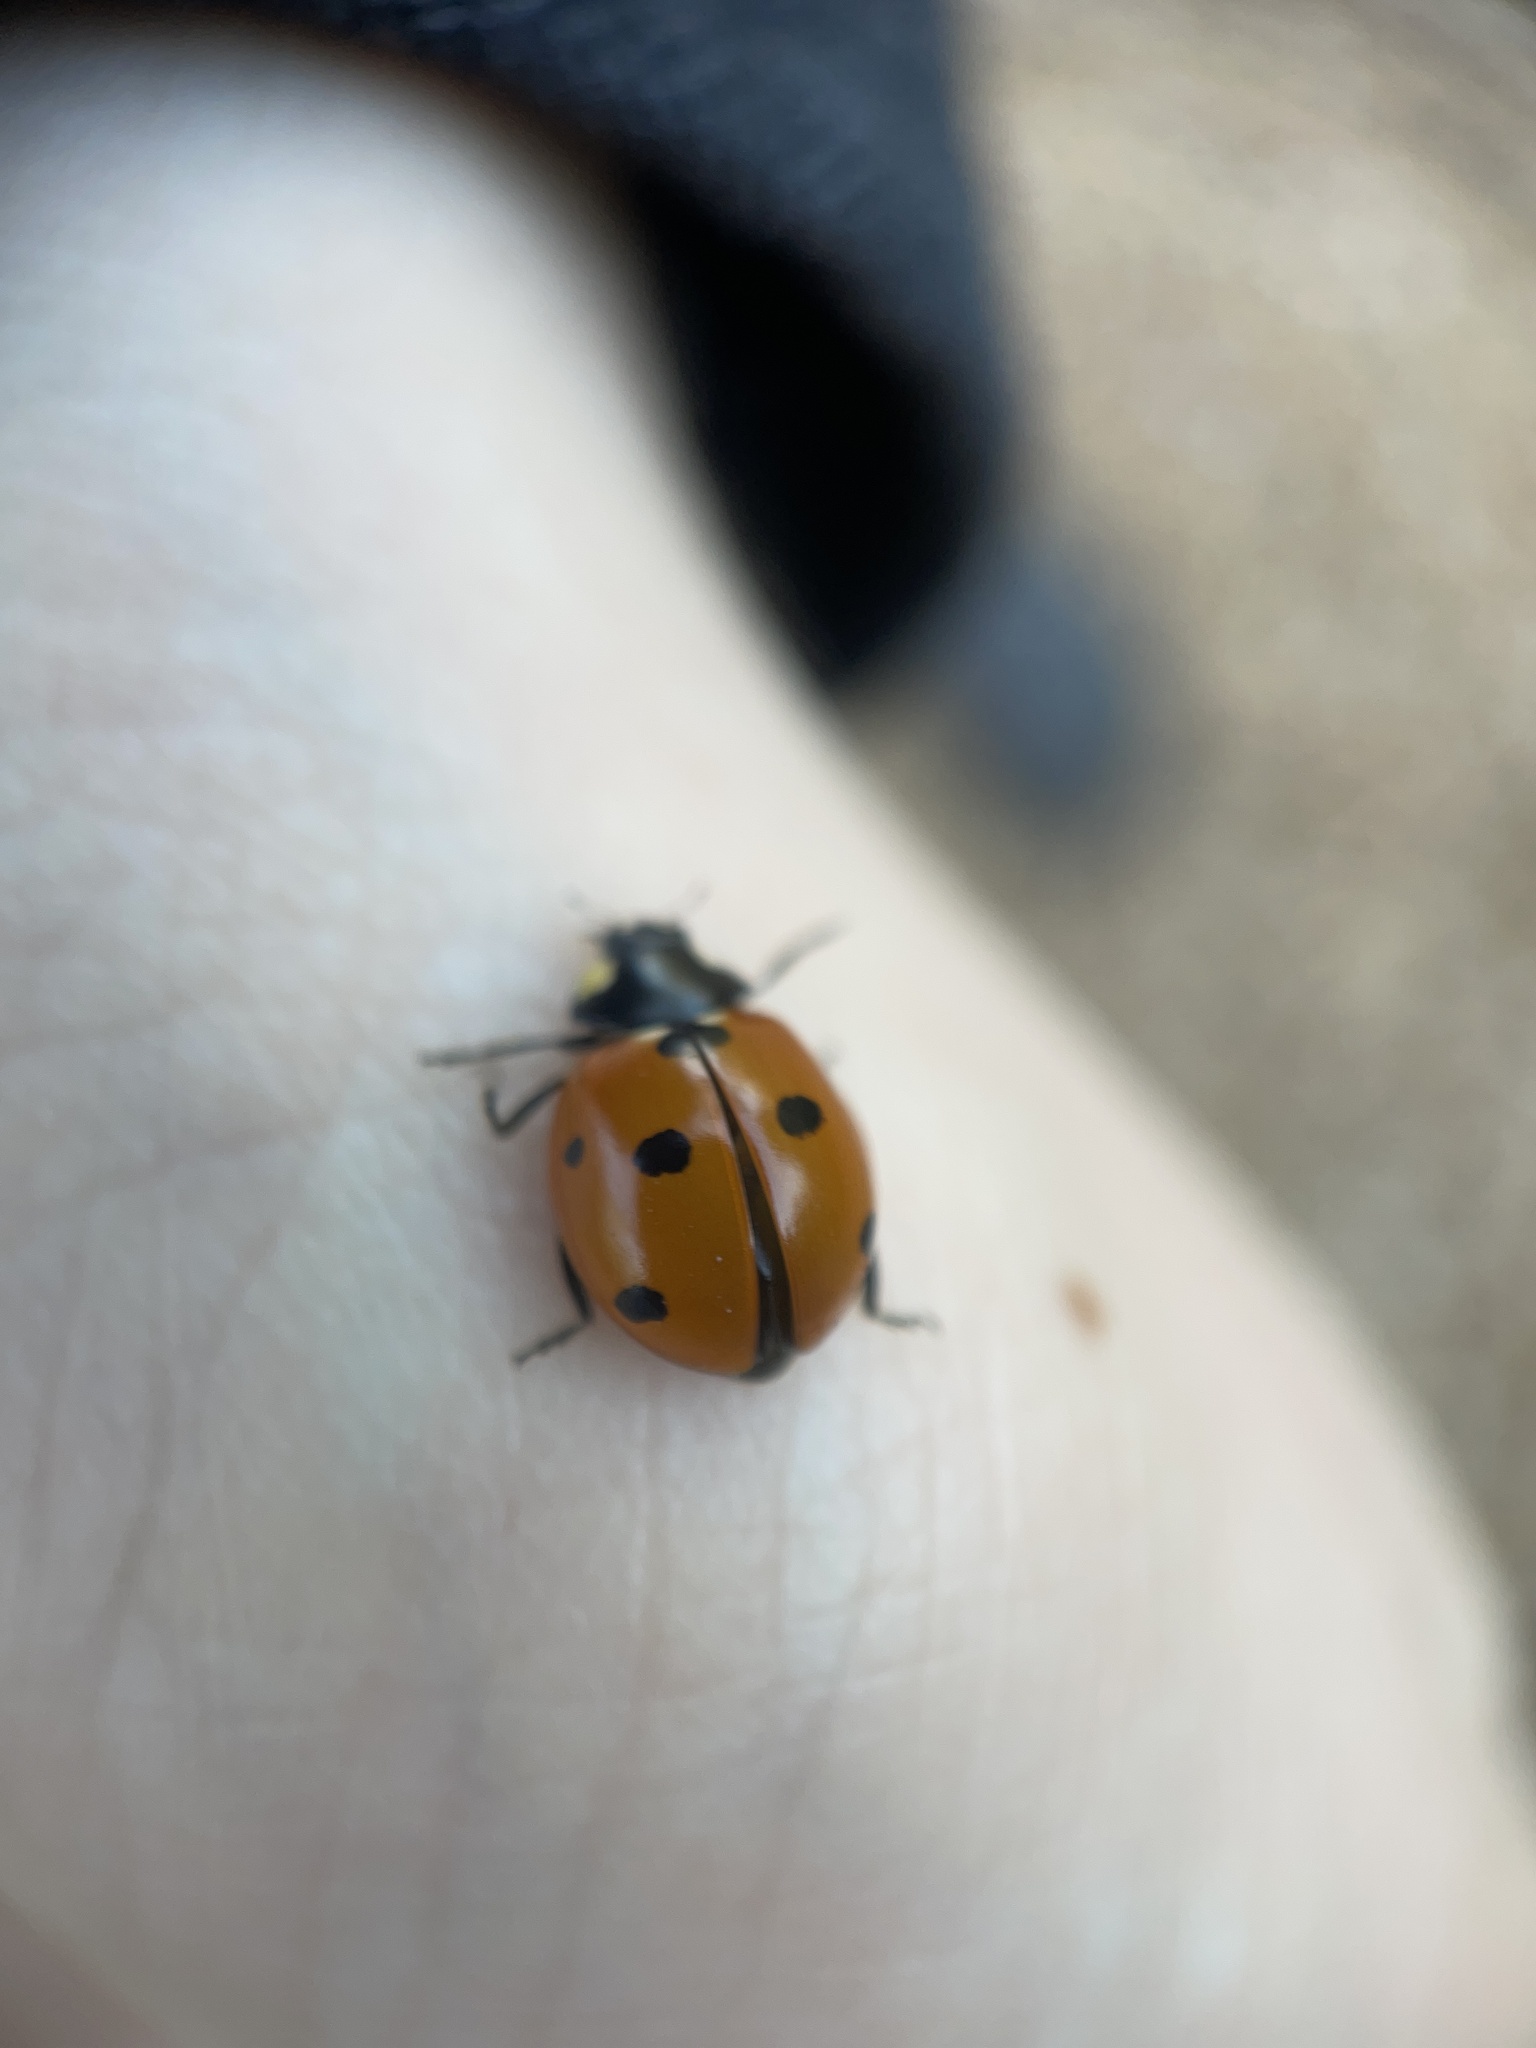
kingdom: Animalia
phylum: Arthropoda
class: Insecta
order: Coleoptera
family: Coccinellidae
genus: Coccinella
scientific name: Coccinella septempunctata
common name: Sevenspotted lady beetle
